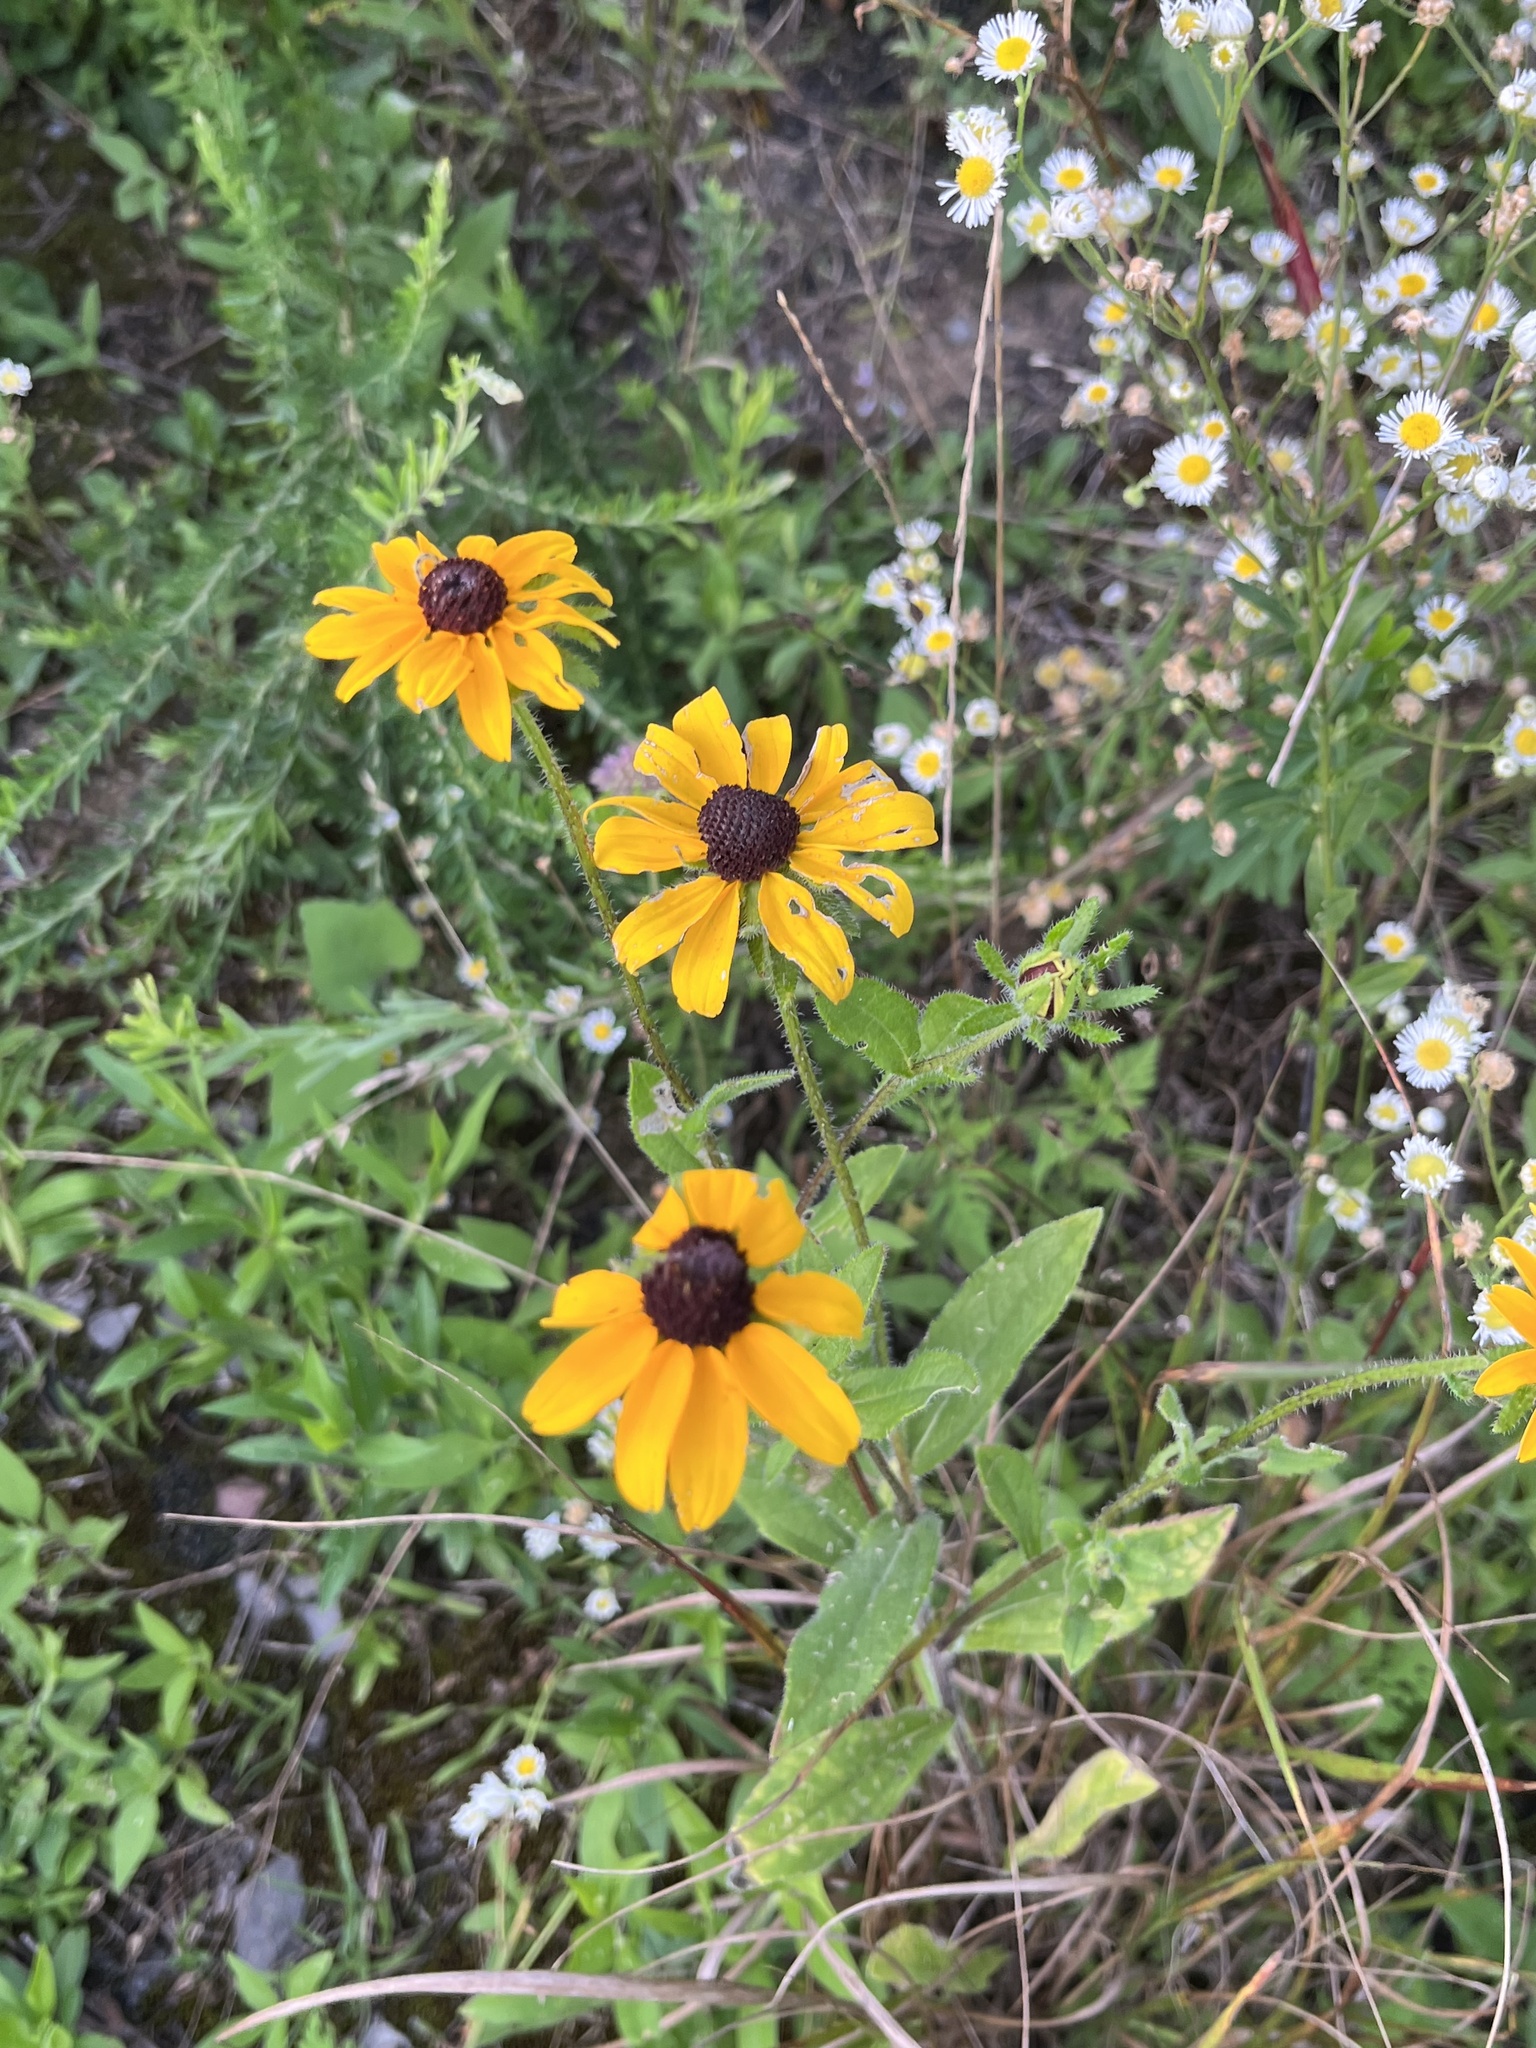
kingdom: Plantae
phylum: Tracheophyta
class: Magnoliopsida
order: Asterales
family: Asteraceae
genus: Rudbeckia
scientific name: Rudbeckia hirta
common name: Black-eyed-susan
